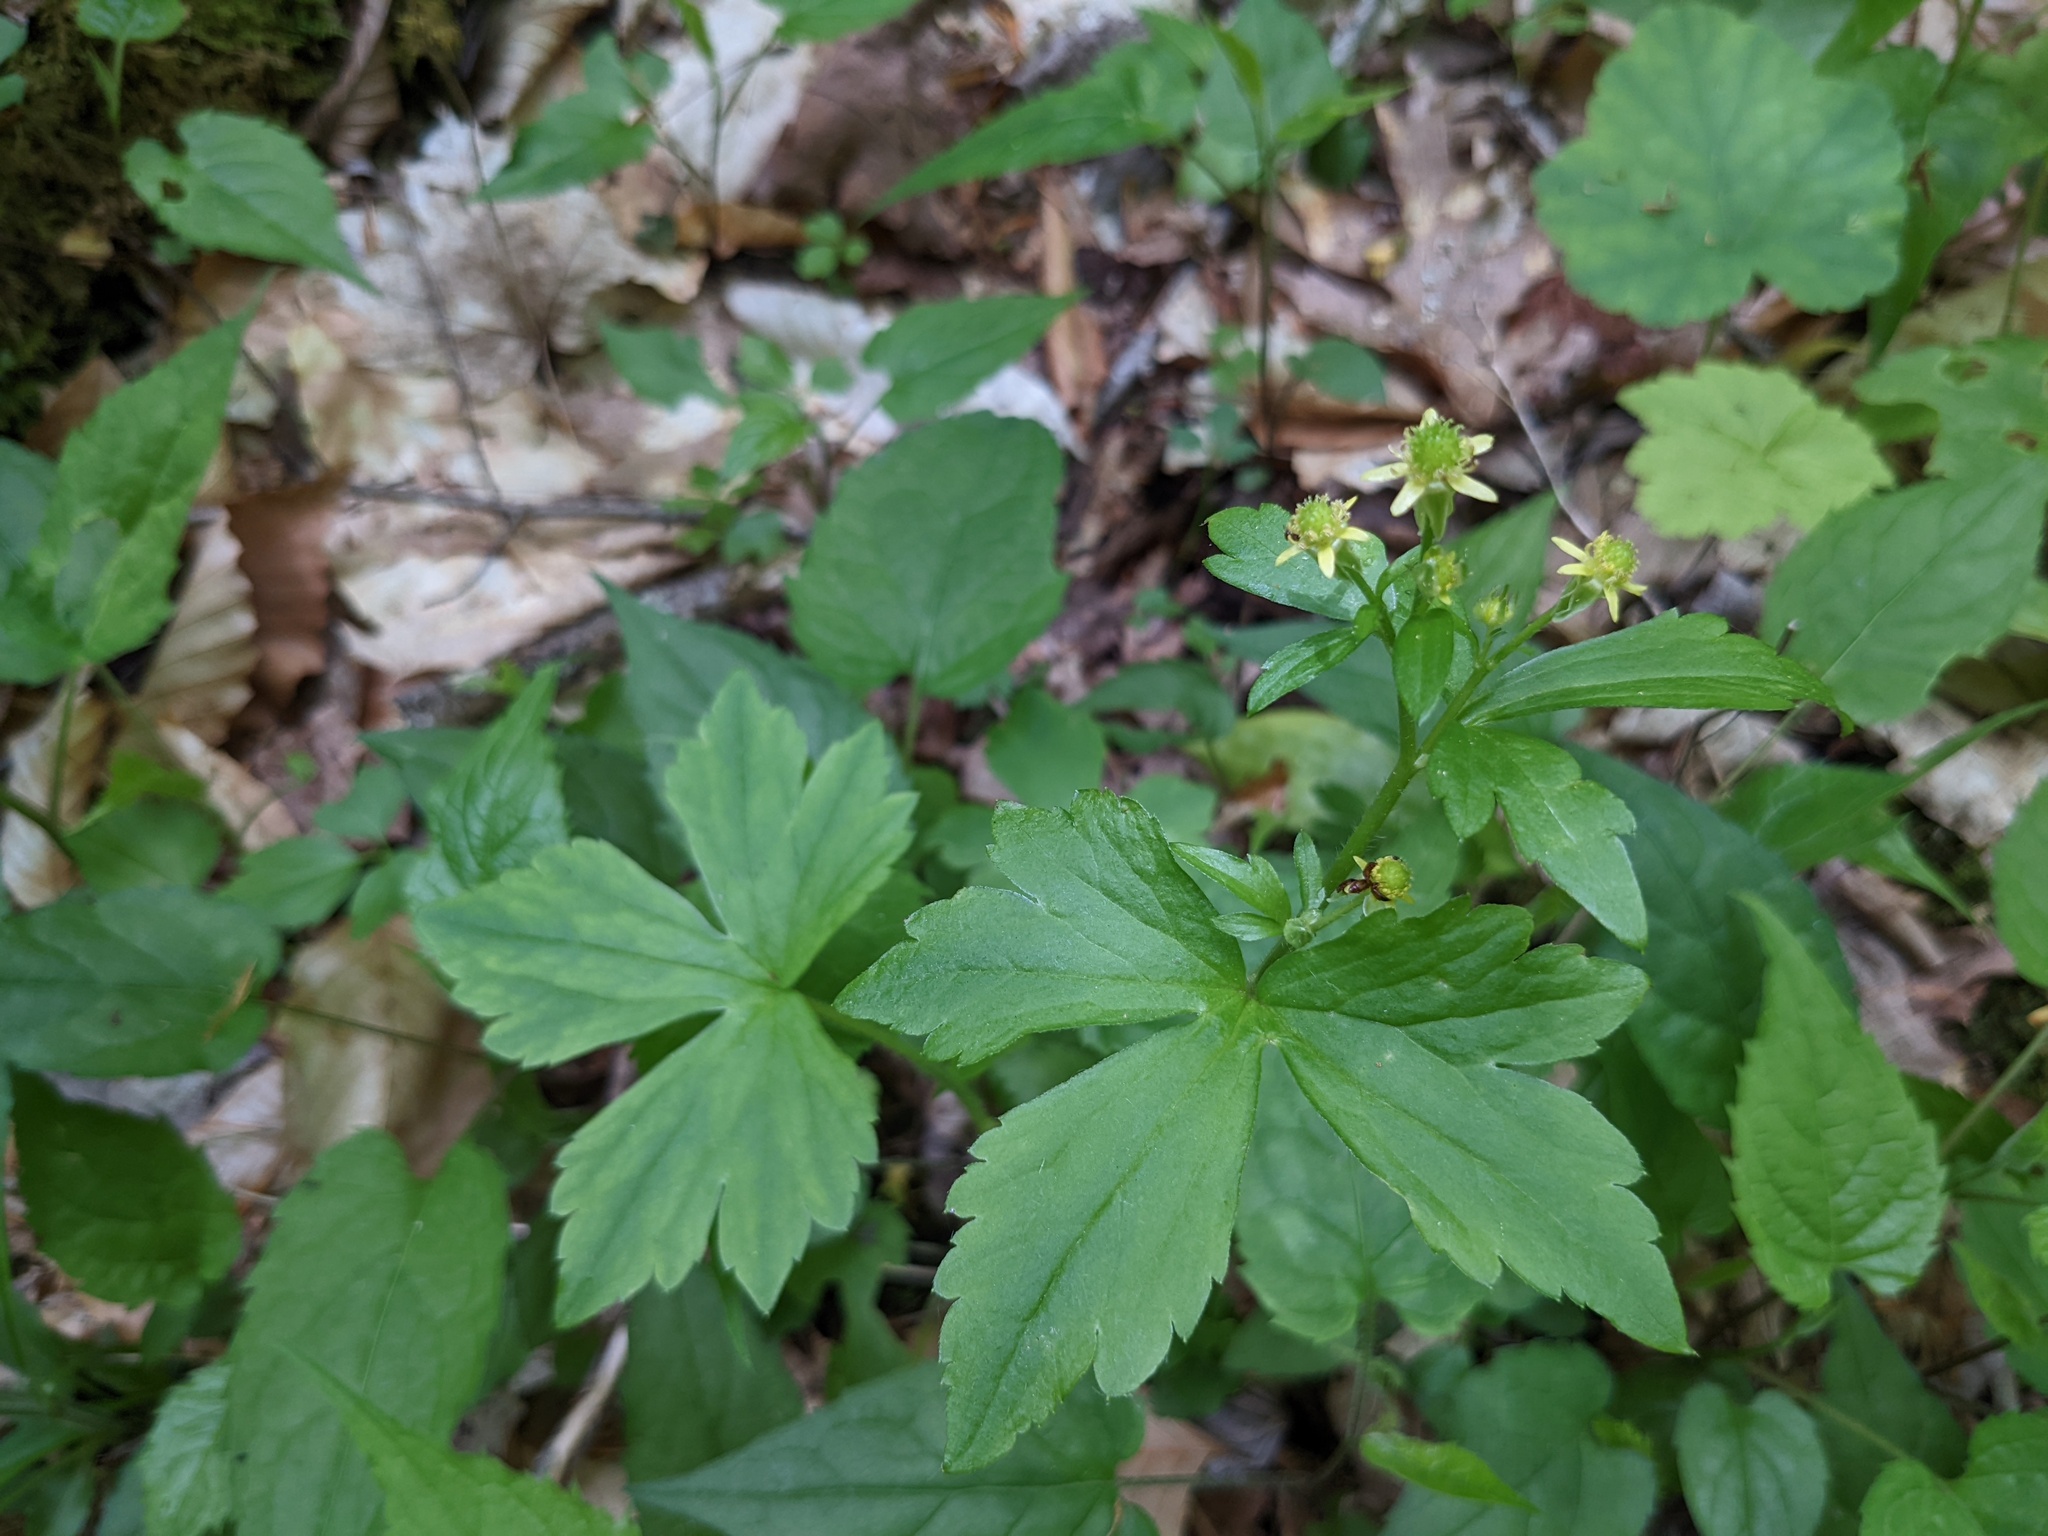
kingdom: Plantae
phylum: Tracheophyta
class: Magnoliopsida
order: Ranunculales
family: Ranunculaceae
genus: Ranunculus
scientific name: Ranunculus recurvatus
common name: Blisterwort
